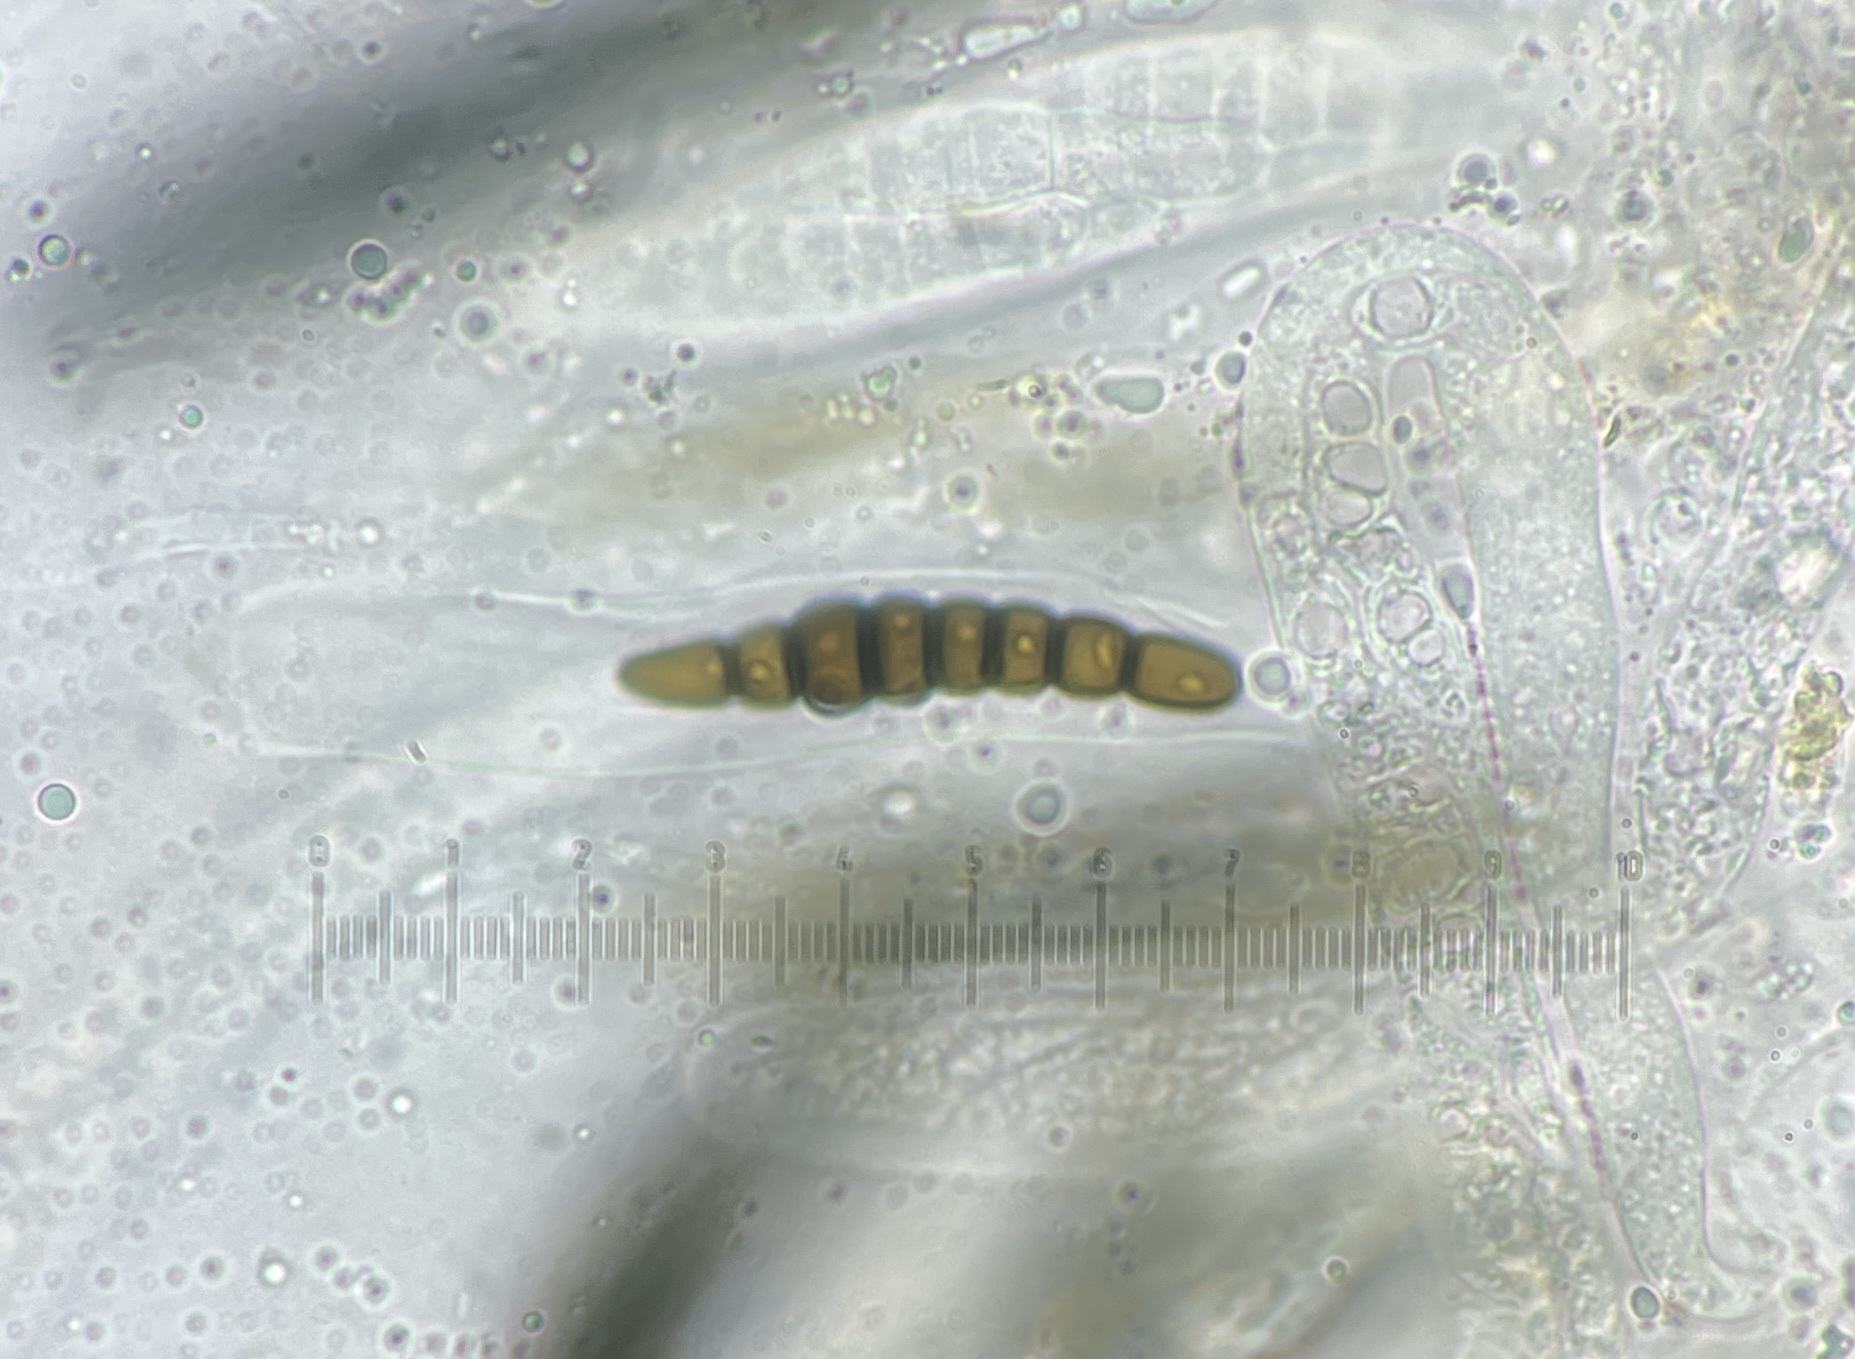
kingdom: Fungi
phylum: Ascomycota
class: Dothideomycetes
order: Pleosporales
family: Sporormiaceae
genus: Preussia
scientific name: Preussia octomera
